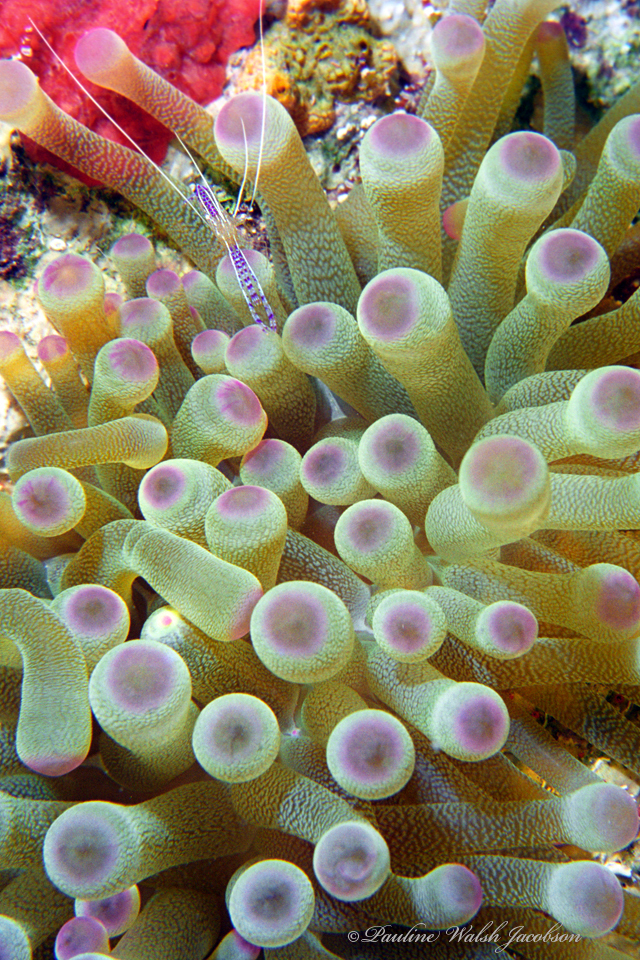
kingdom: Animalia
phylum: Arthropoda
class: Malacostraca
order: Decapoda
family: Palaemonidae
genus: Ancylomenes
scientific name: Ancylomenes pedersoni
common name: Pederson's cleaning shrimp
